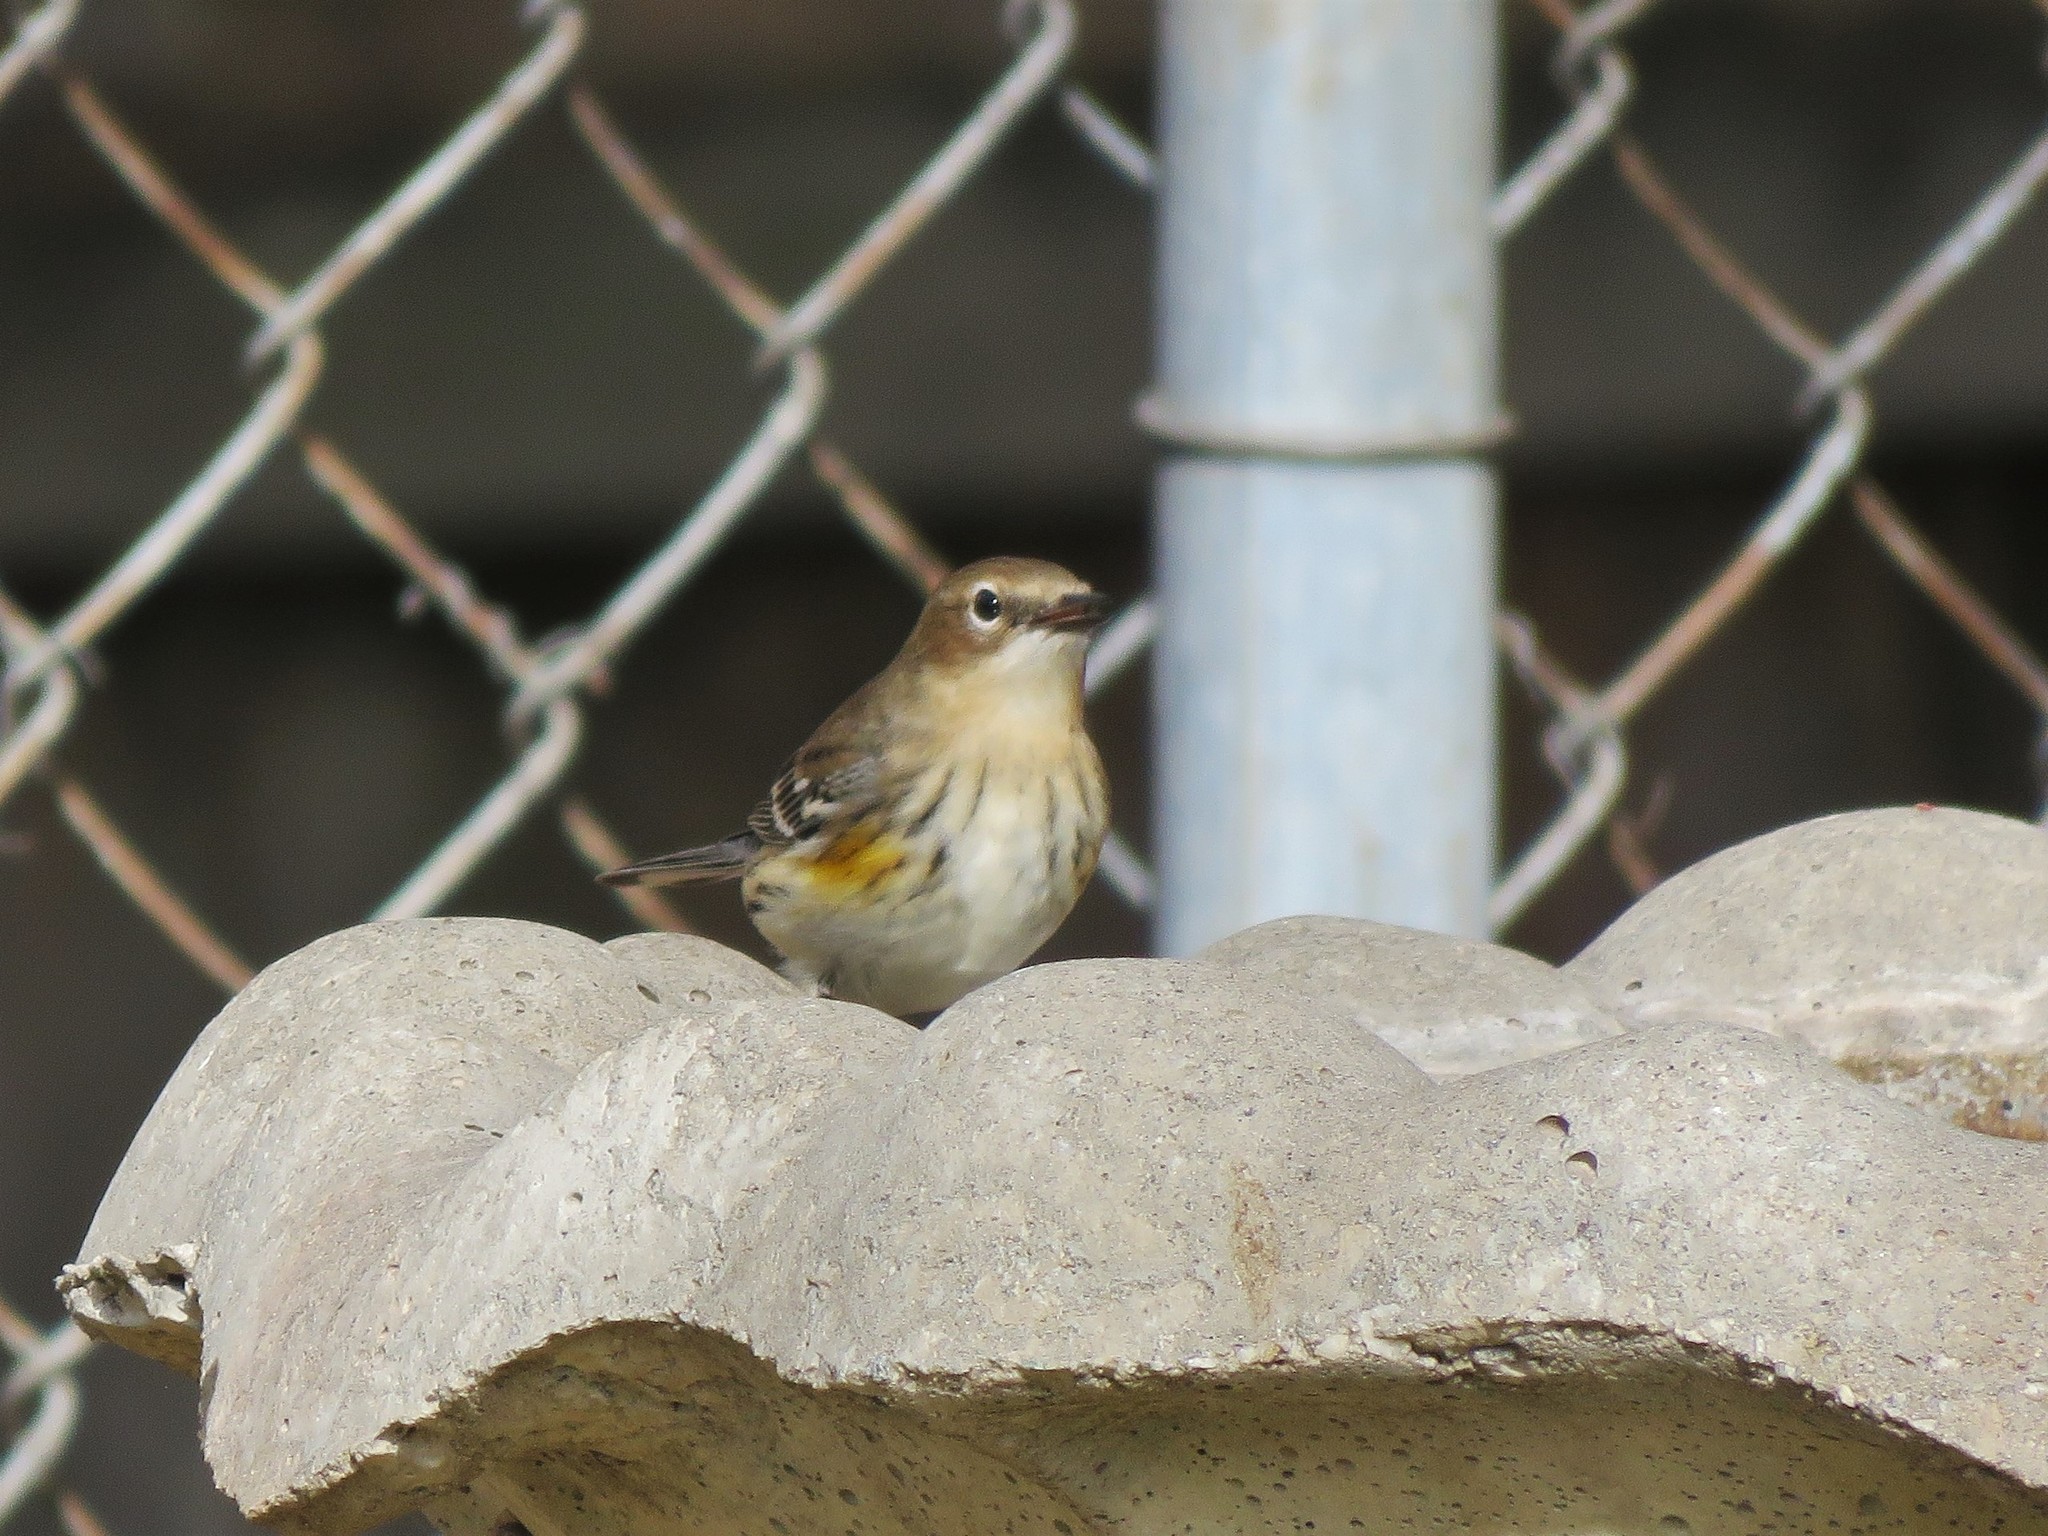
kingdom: Animalia
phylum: Chordata
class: Aves
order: Passeriformes
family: Parulidae
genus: Setophaga
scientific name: Setophaga coronata
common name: Myrtle warbler
